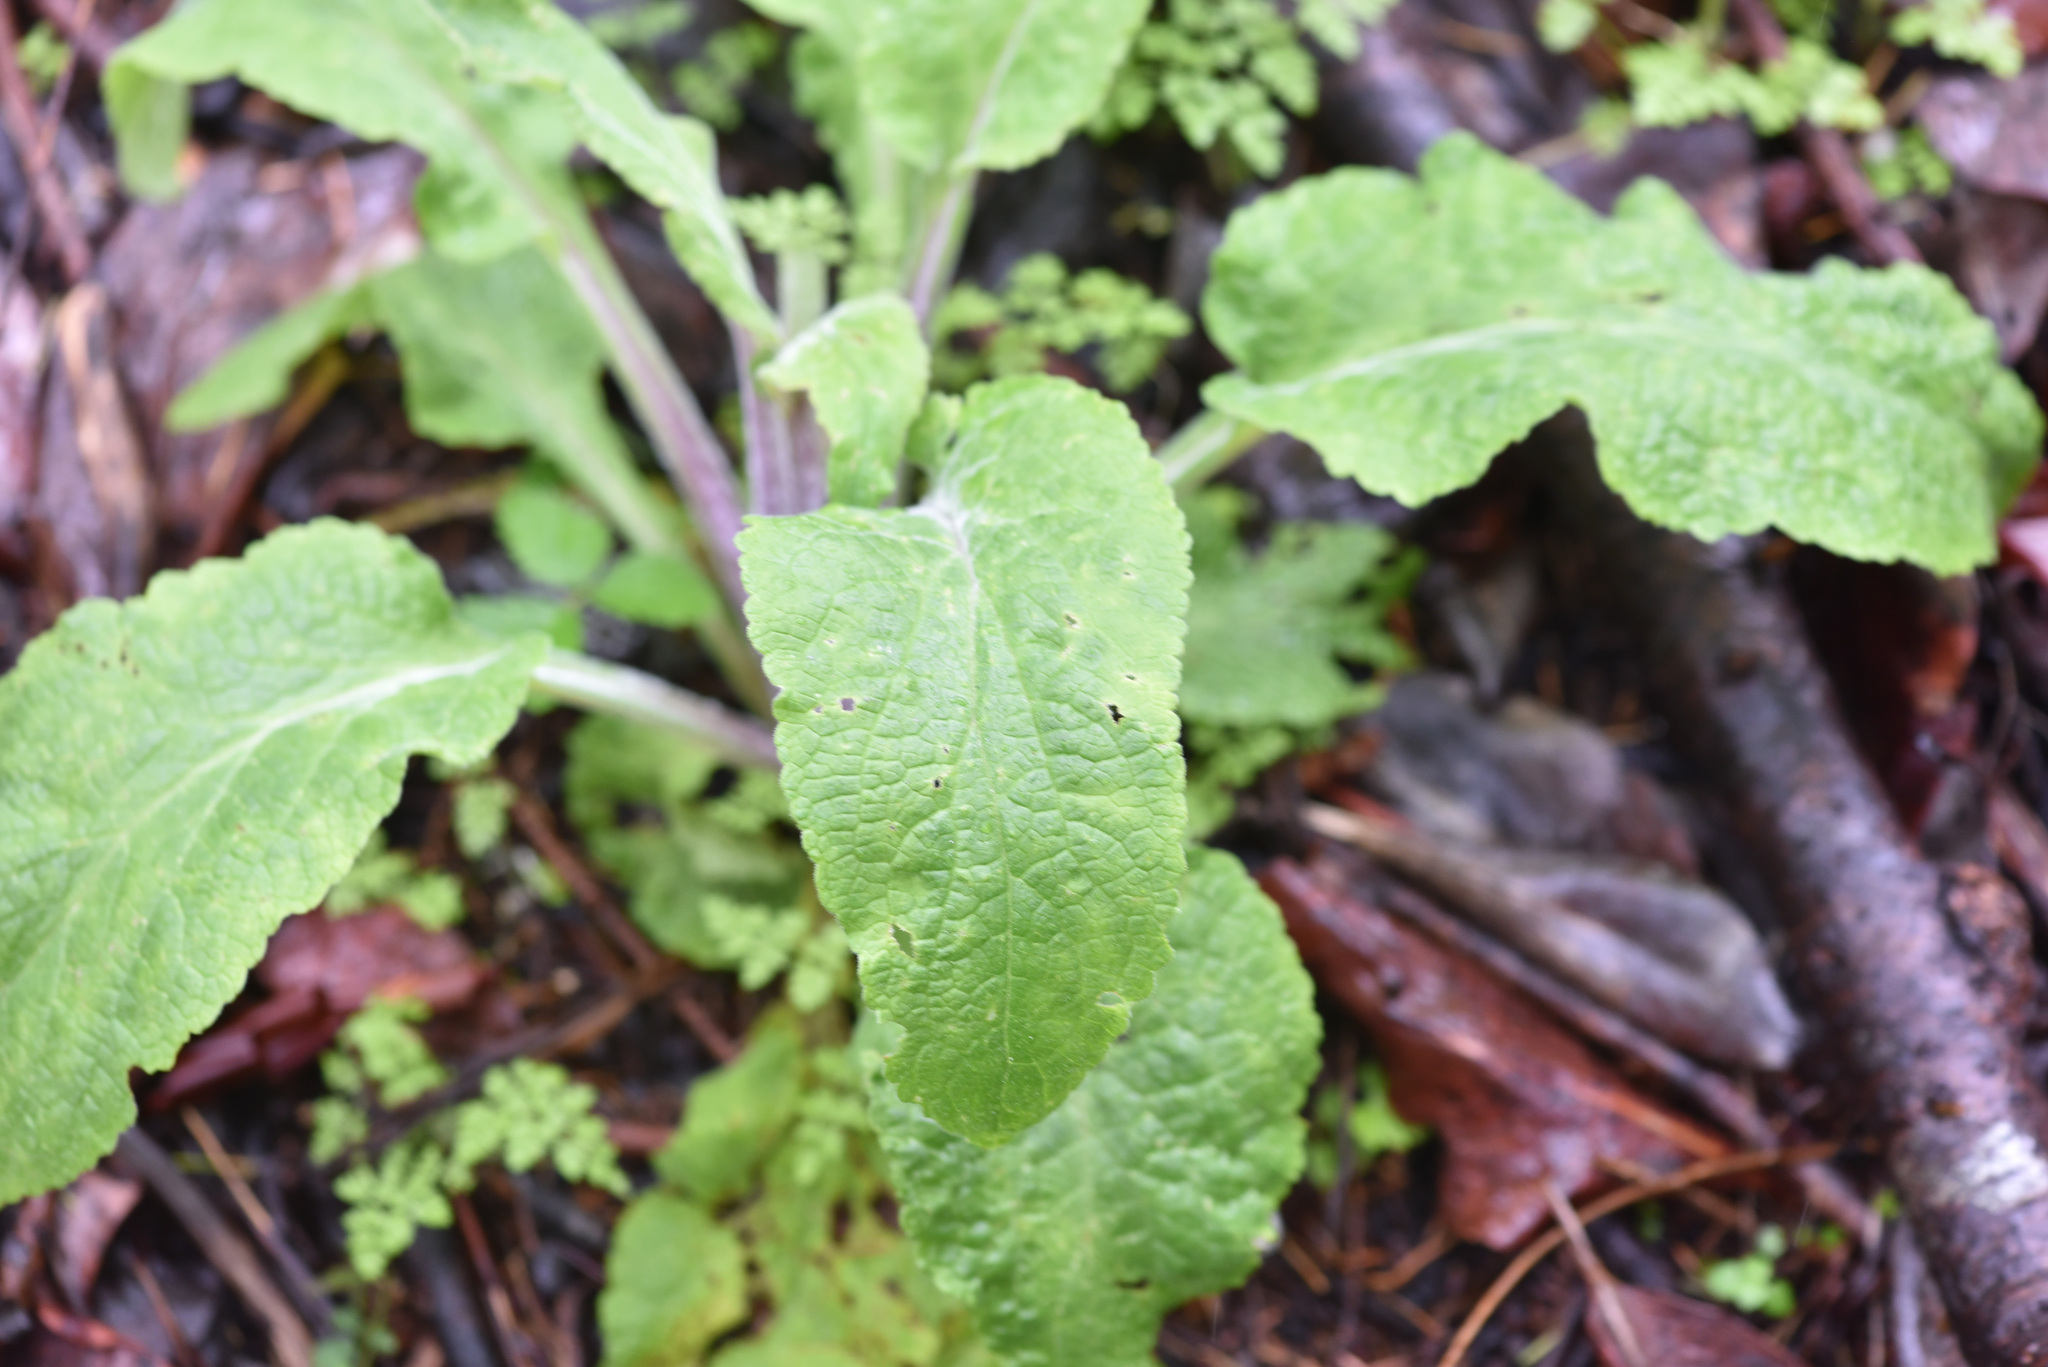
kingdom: Plantae
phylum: Tracheophyta
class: Magnoliopsida
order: Lamiales
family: Plantaginaceae
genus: Digitalis
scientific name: Digitalis purpurea
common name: Foxglove
